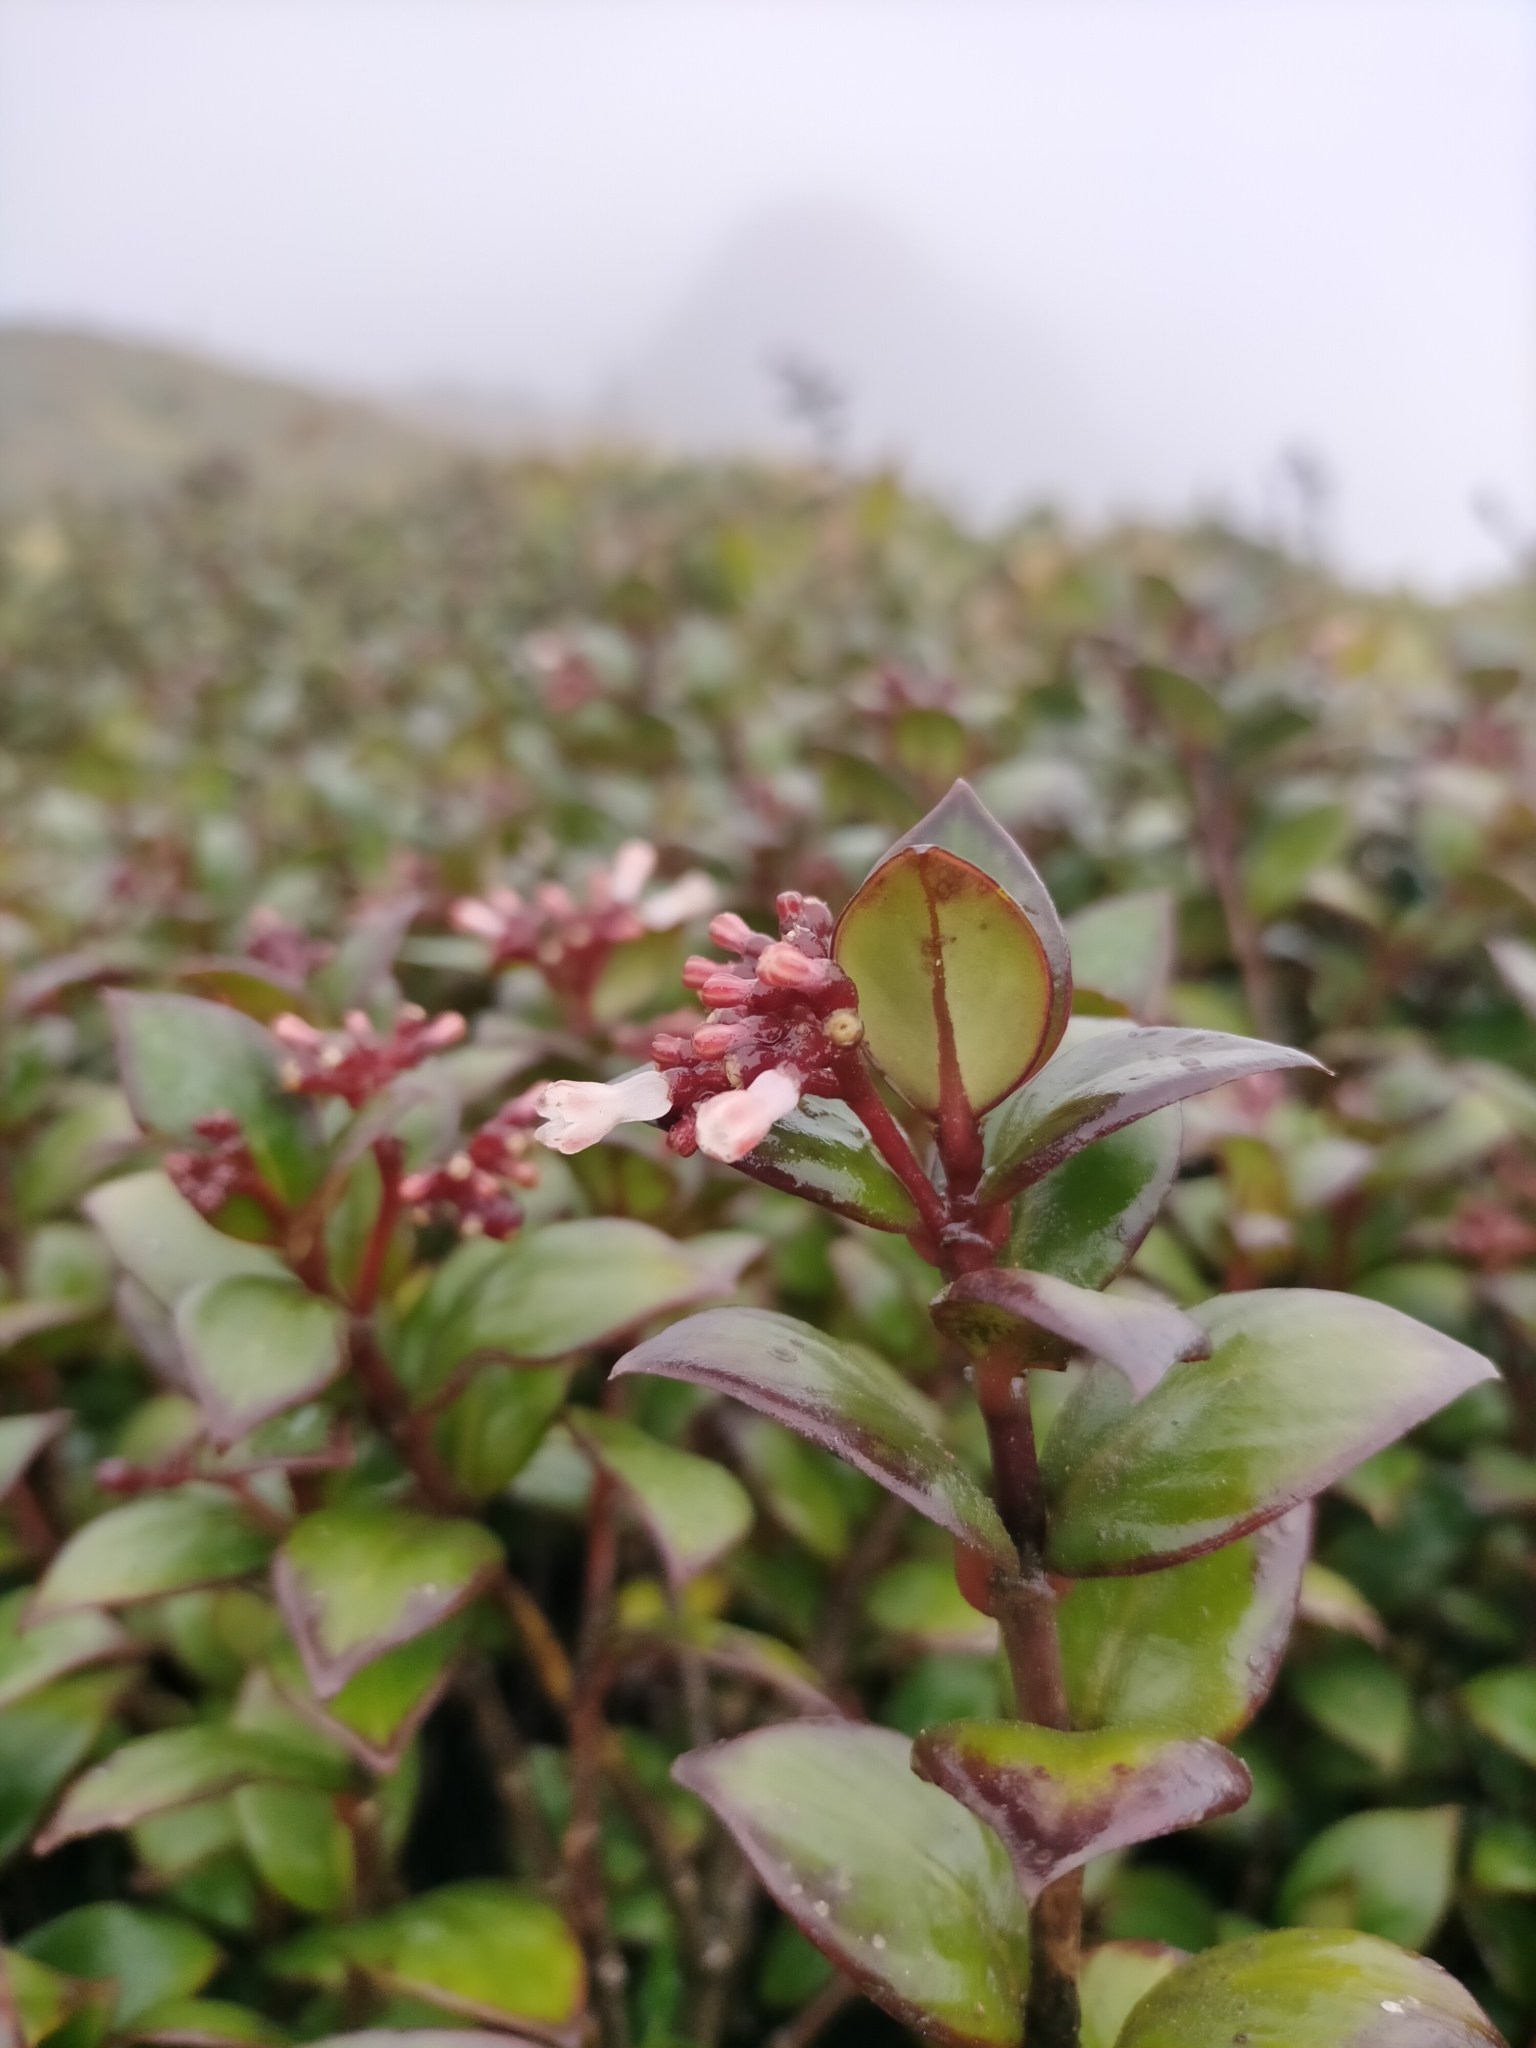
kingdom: Plantae
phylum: Tracheophyta
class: Magnoliopsida
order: Gentianales
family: Rubiaceae
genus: Notopleura
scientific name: Notopleura parasitica
